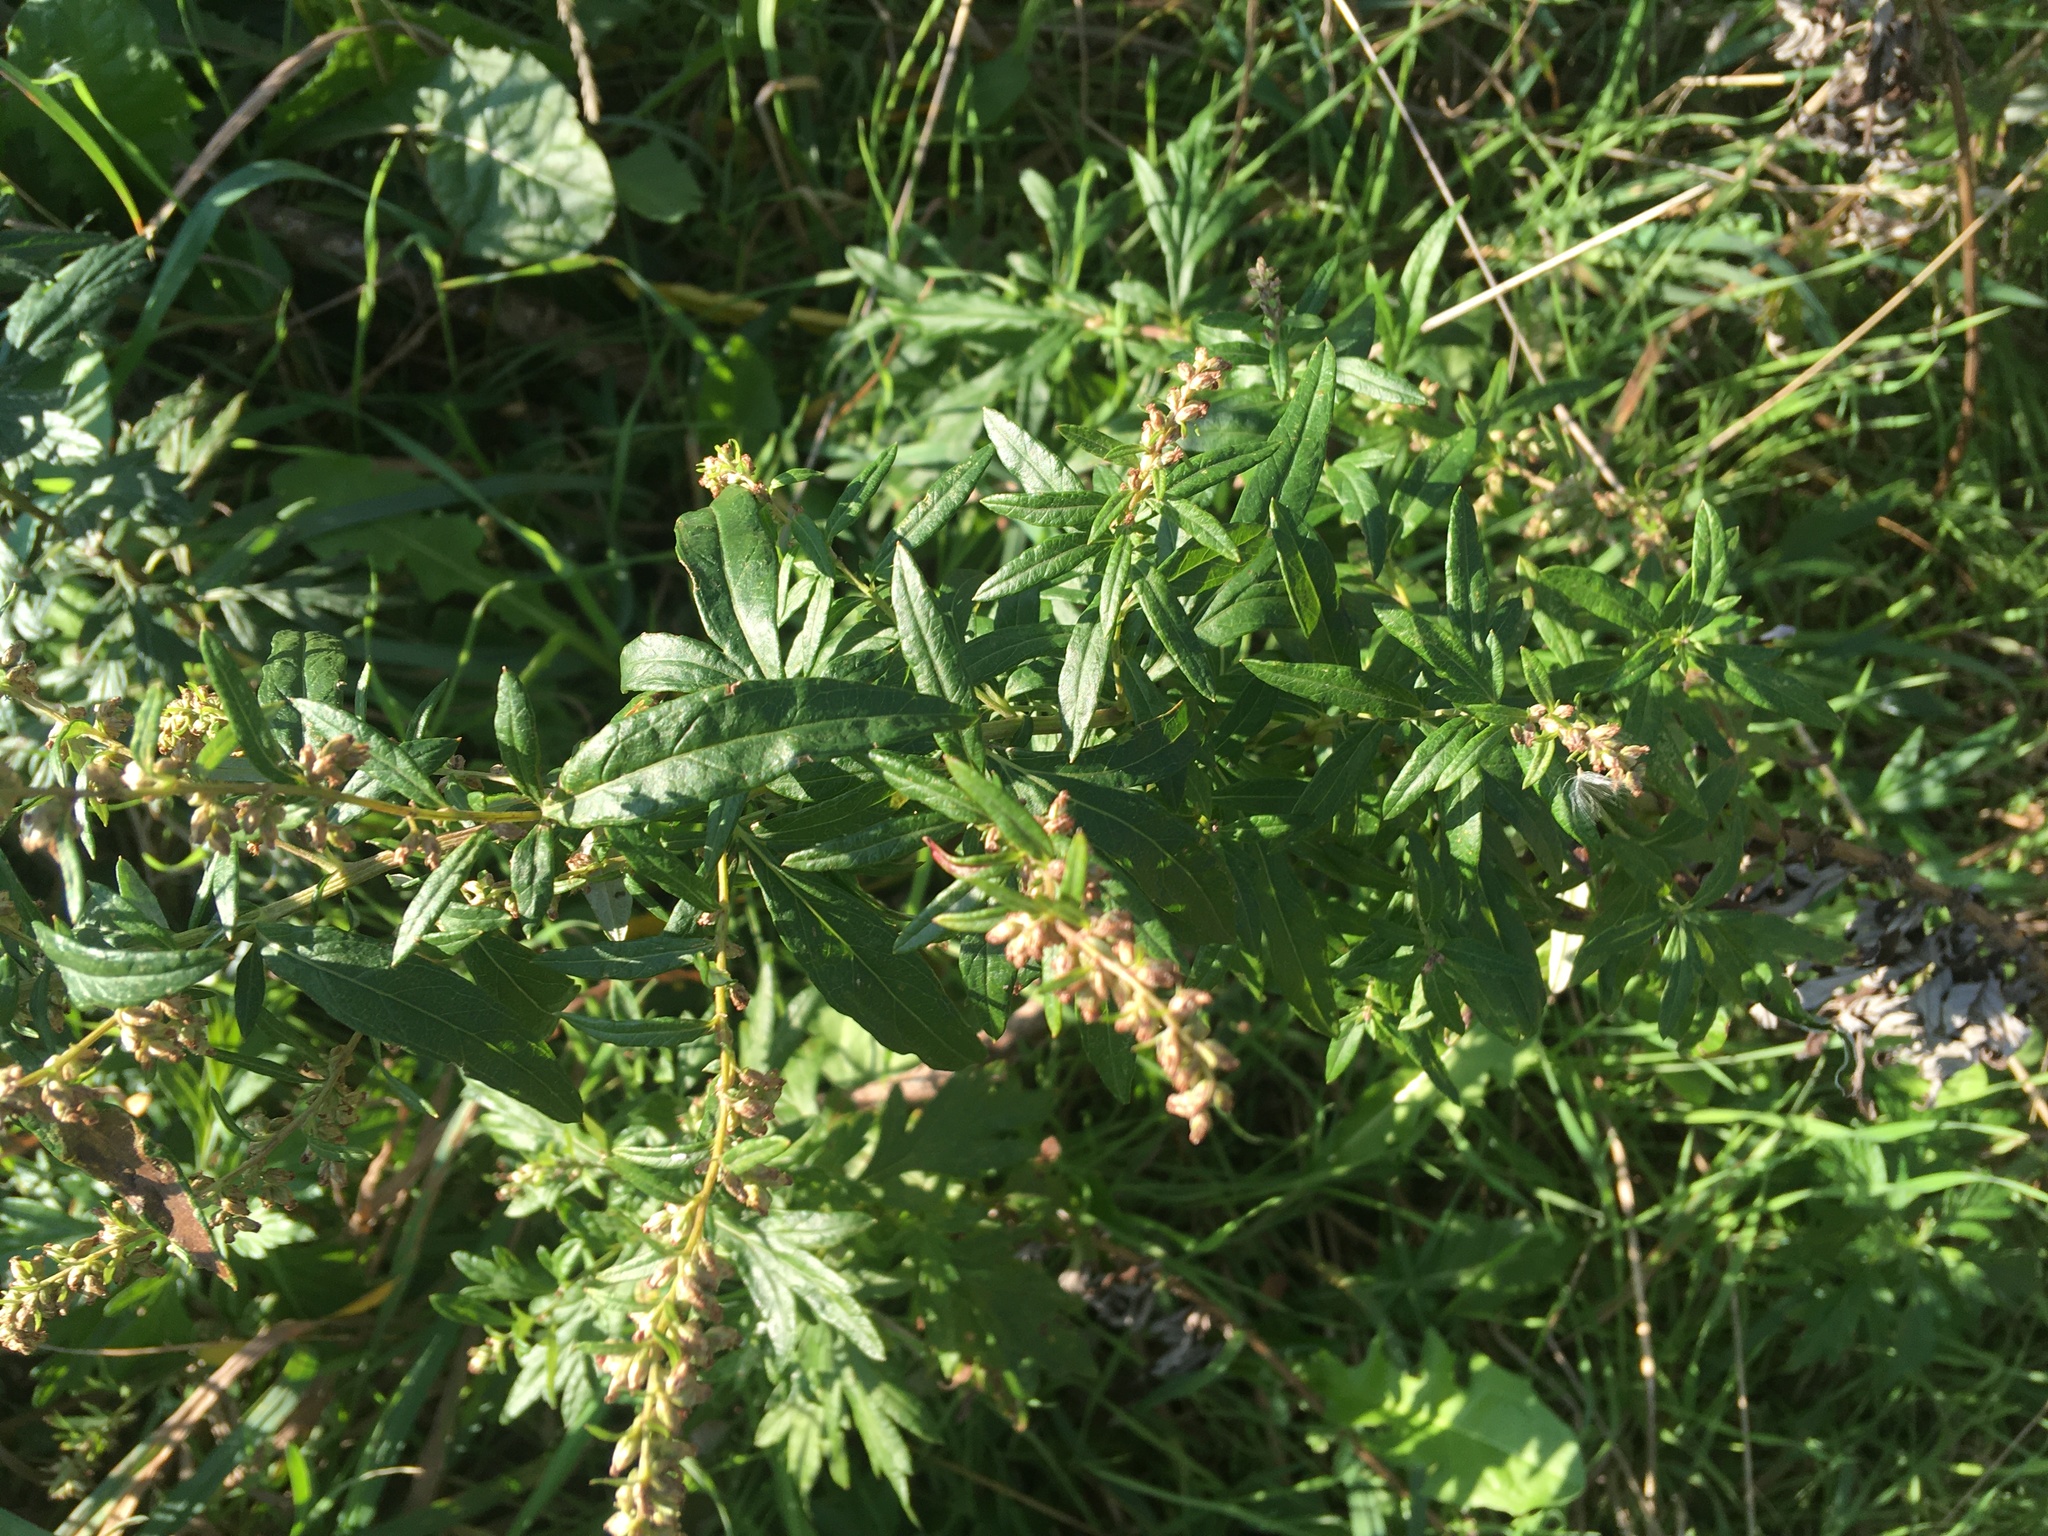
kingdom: Plantae
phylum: Tracheophyta
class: Magnoliopsida
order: Asterales
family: Asteraceae
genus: Artemisia
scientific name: Artemisia vulgaris
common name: Mugwort
